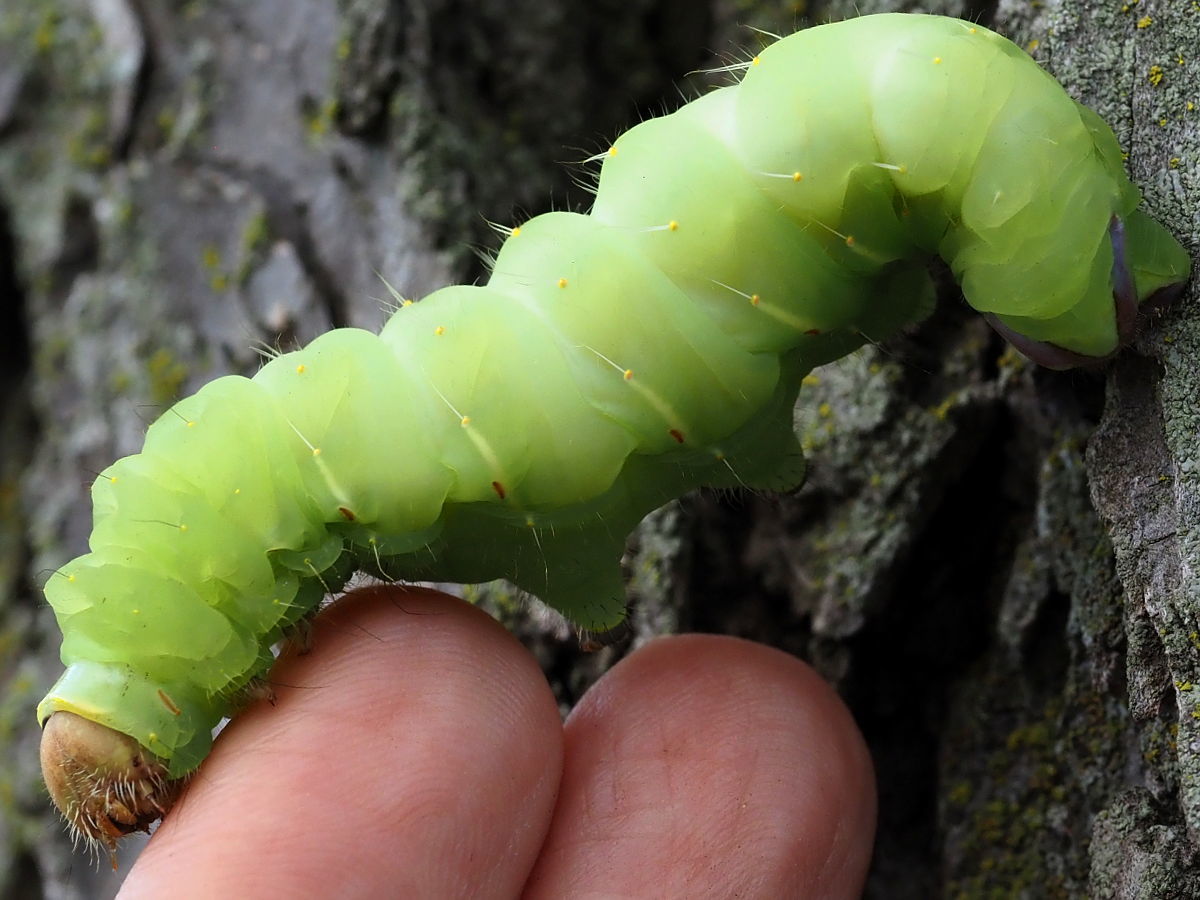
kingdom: Animalia
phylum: Arthropoda
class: Insecta
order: Lepidoptera
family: Saturniidae
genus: Antheraea
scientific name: Antheraea polyphemus
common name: Polyphemus moth
